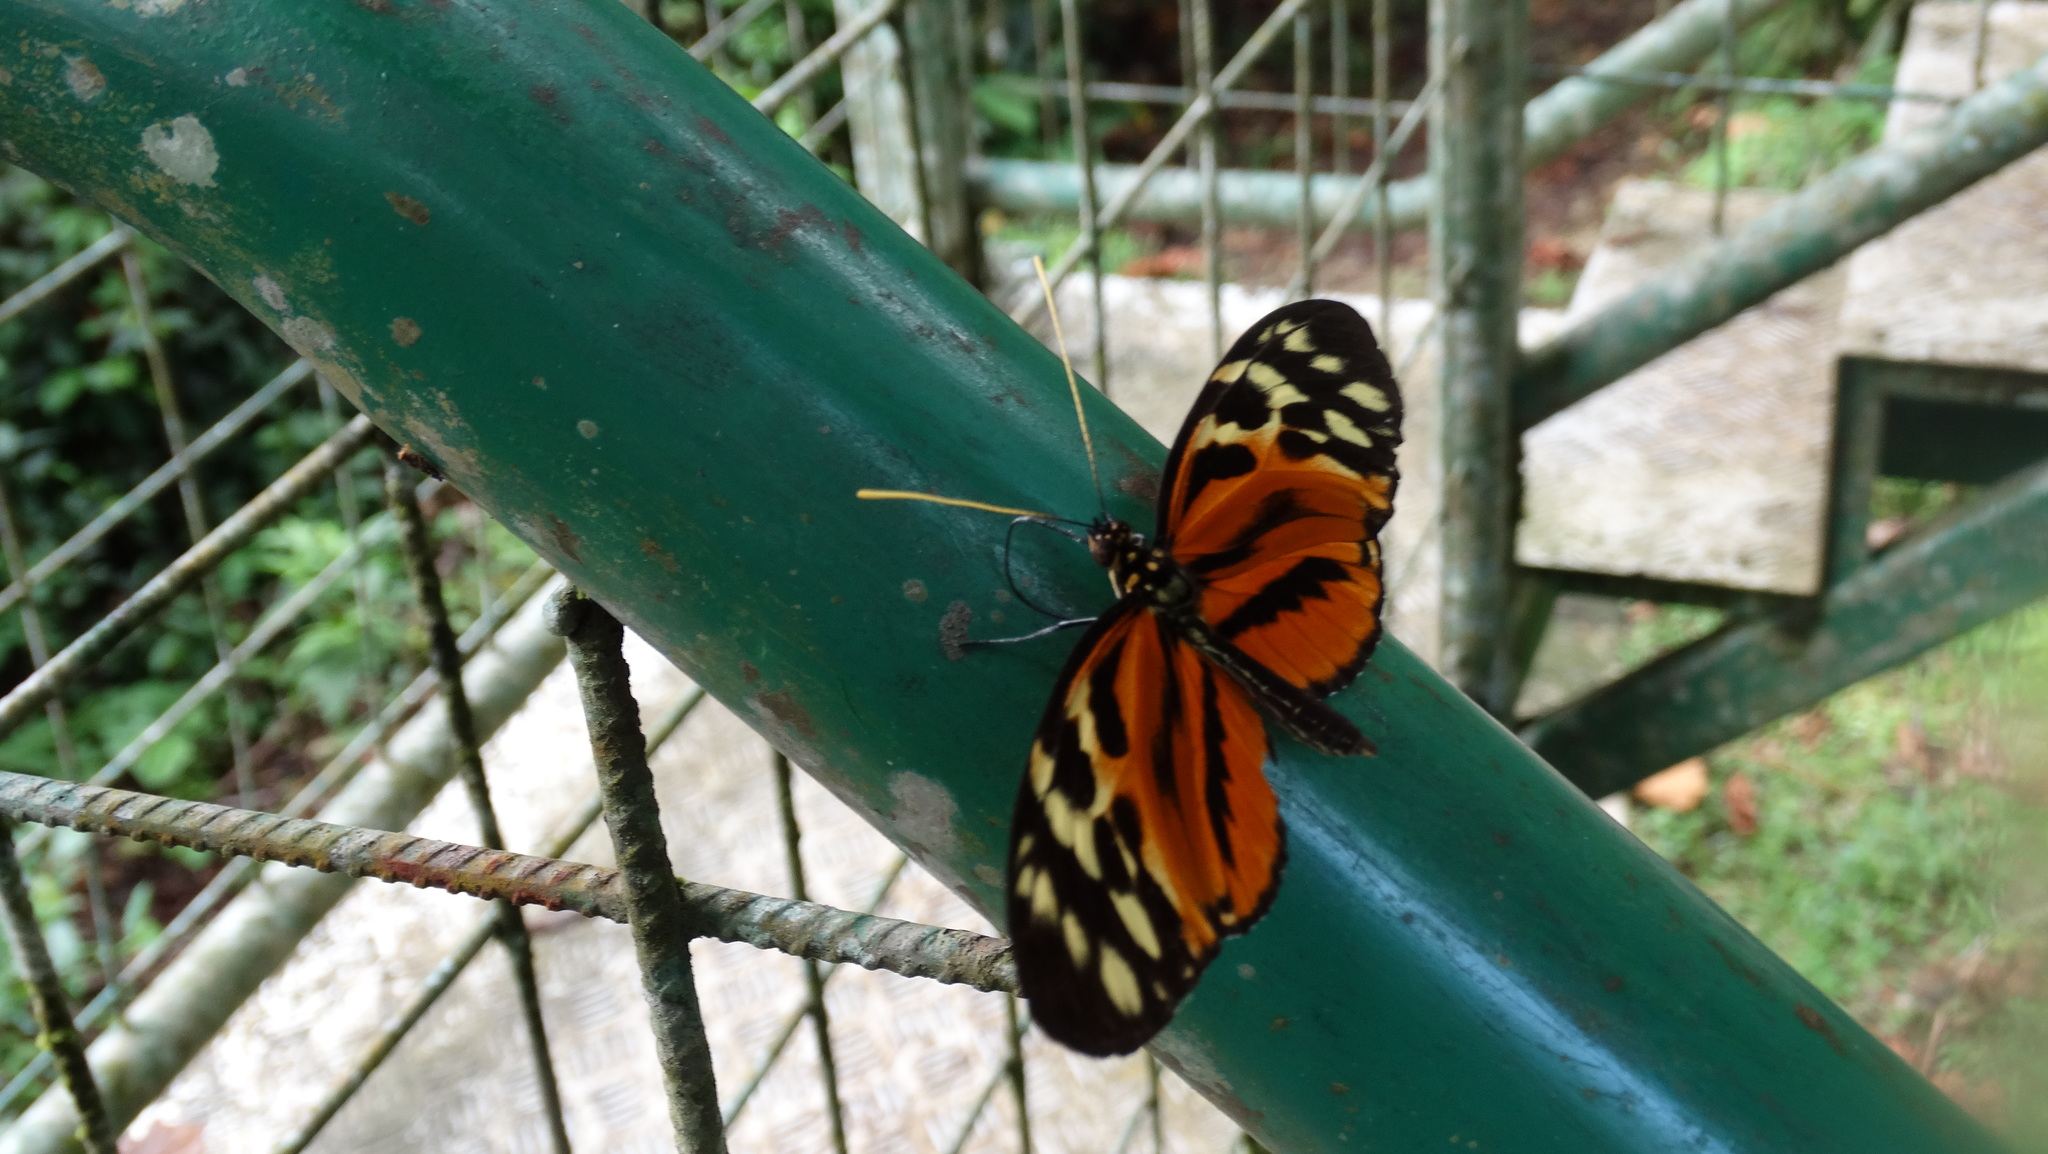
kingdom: Animalia
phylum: Arthropoda
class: Insecta
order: Lepidoptera
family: Nymphalidae
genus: Heliconius
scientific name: Heliconius hecale
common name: Tiger longwing
